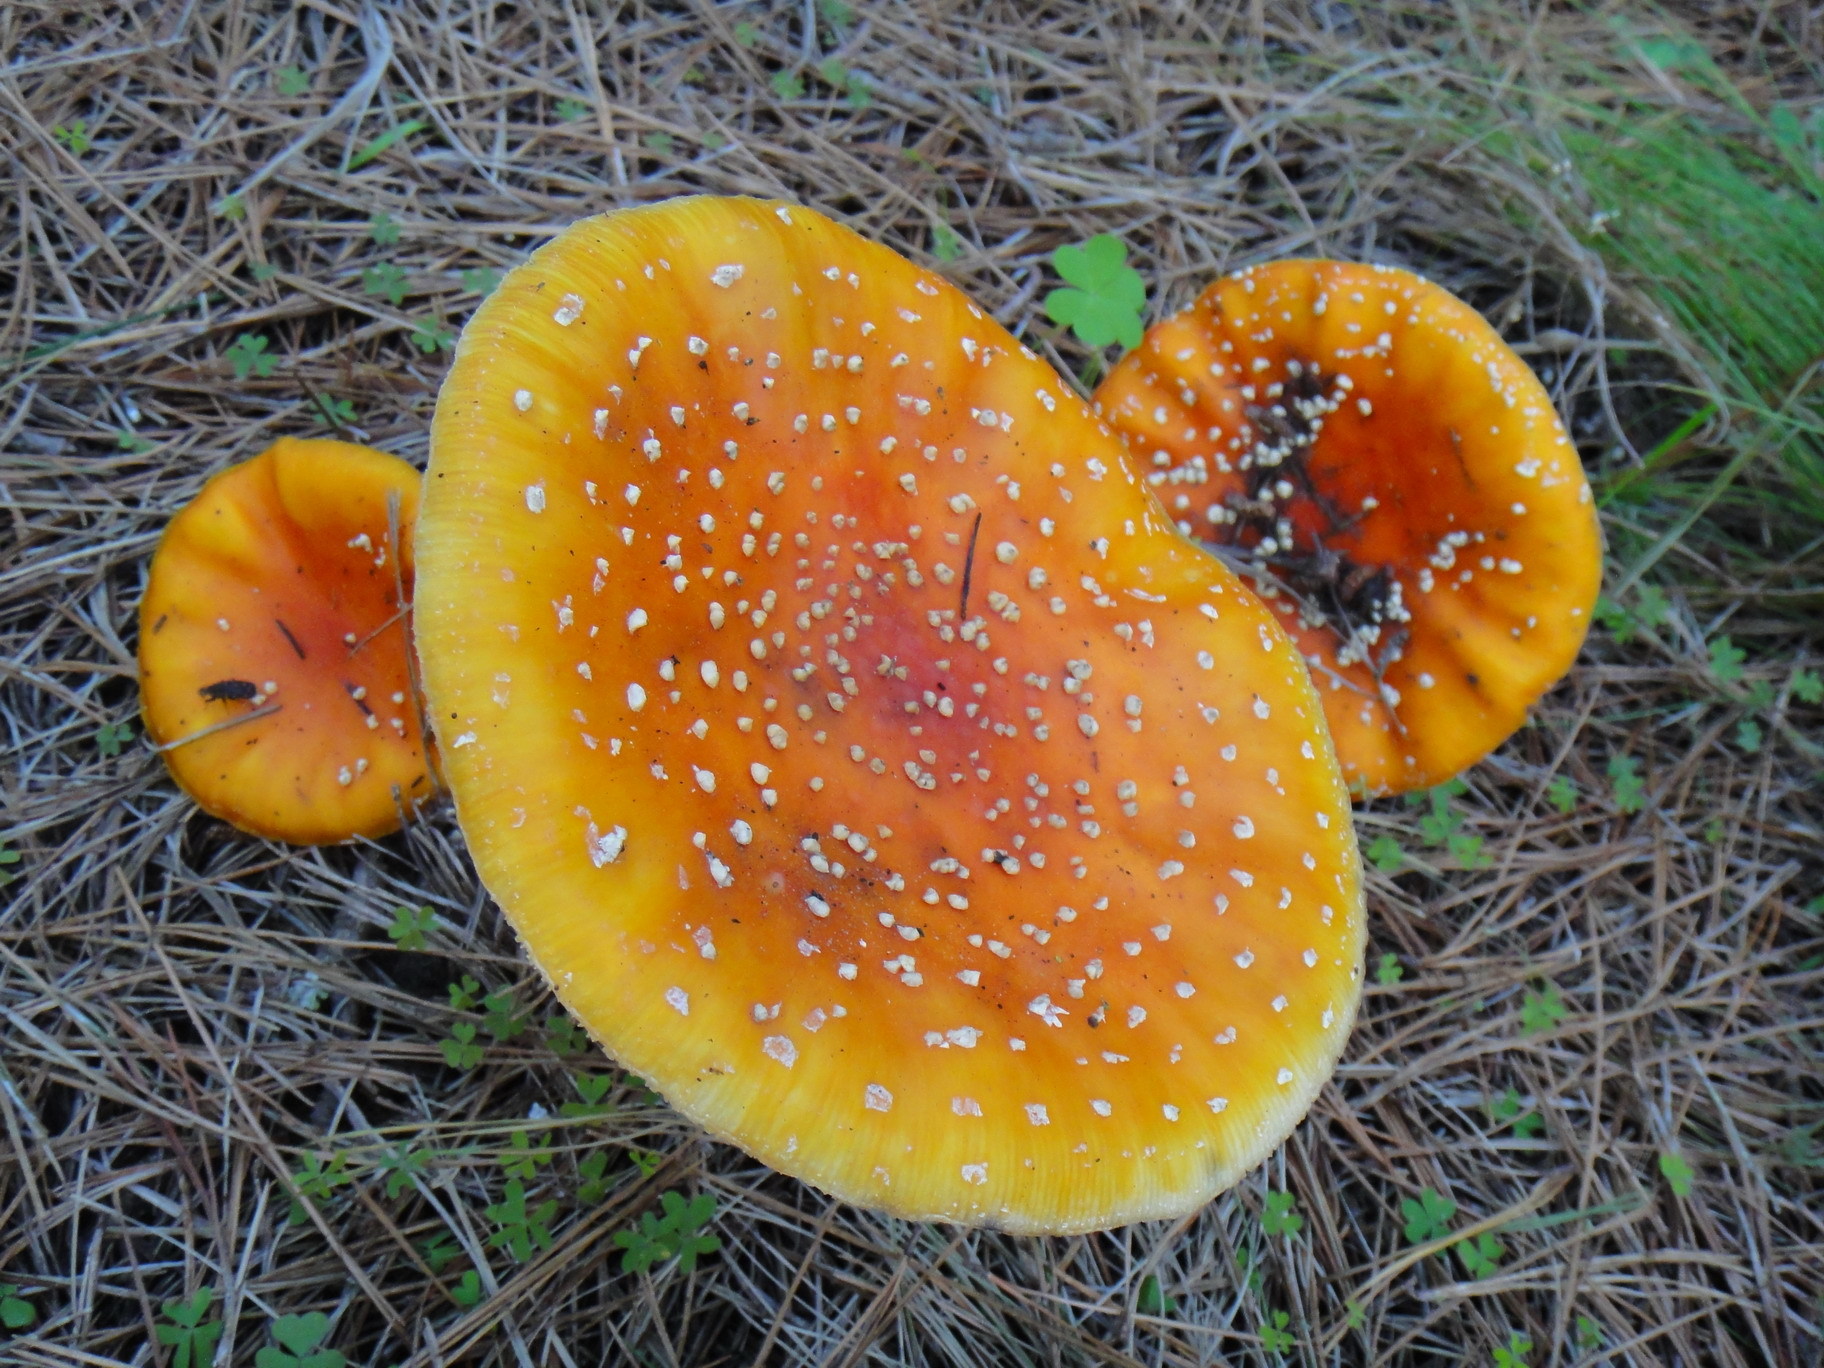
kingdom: Fungi
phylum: Basidiomycota
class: Agaricomycetes
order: Agaricales
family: Amanitaceae
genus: Amanita
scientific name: Amanita muscaria
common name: Fly agaric
